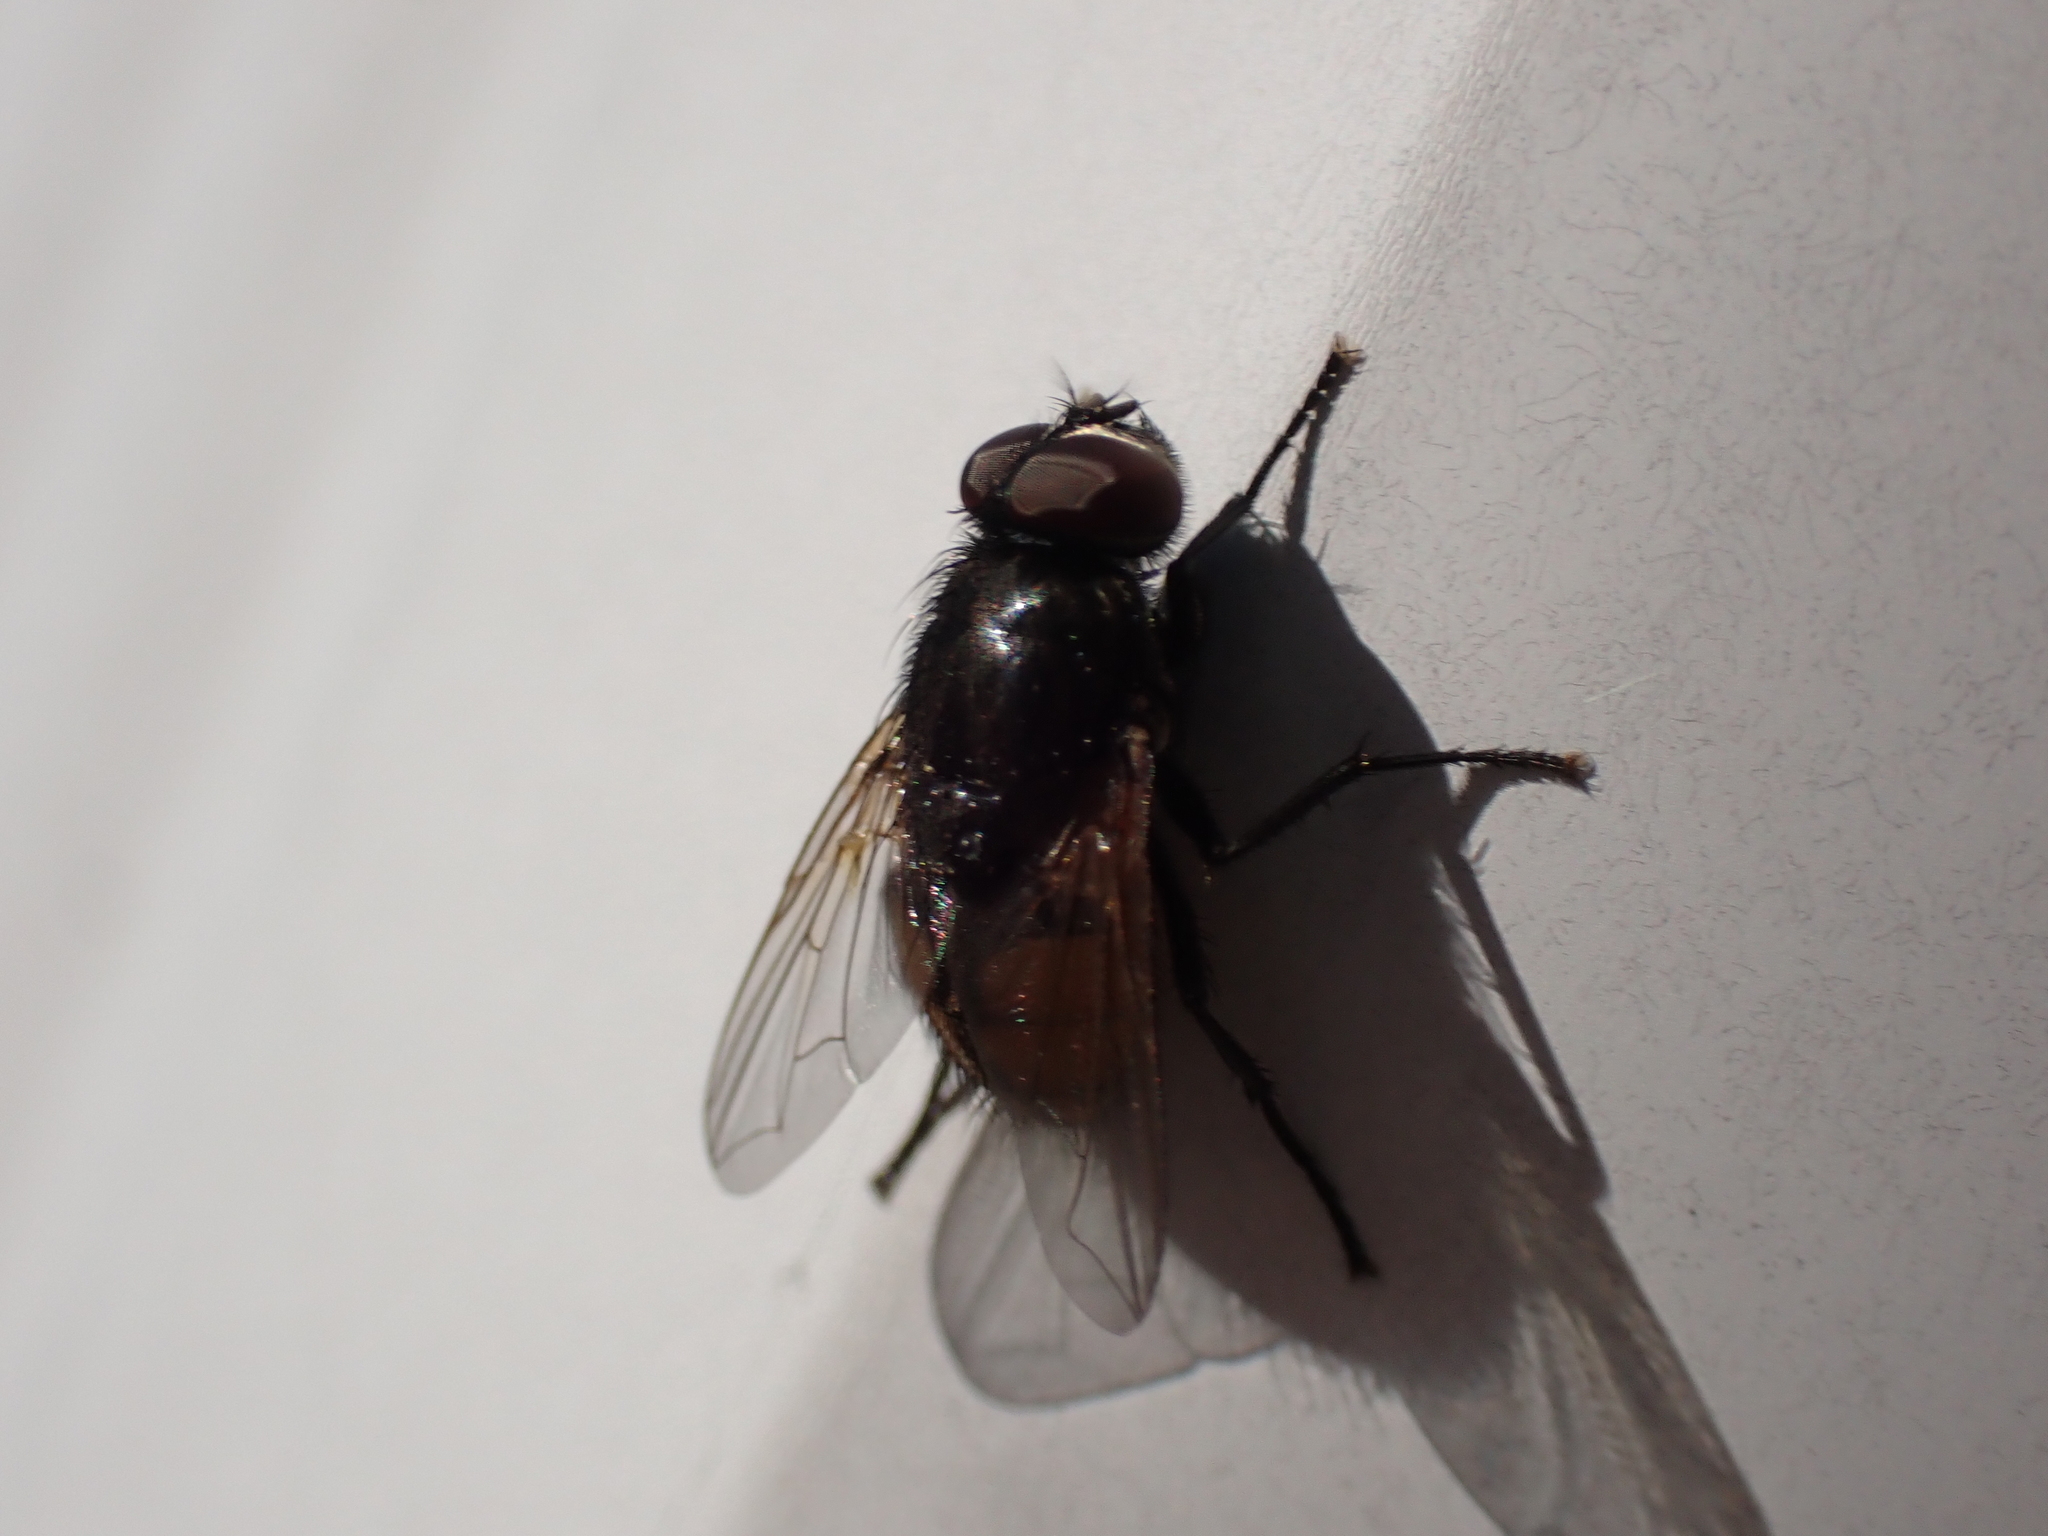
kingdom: Animalia
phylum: Arthropoda
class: Insecta
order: Diptera
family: Muscidae
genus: Musca
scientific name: Musca autumnalis
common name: Face fly
